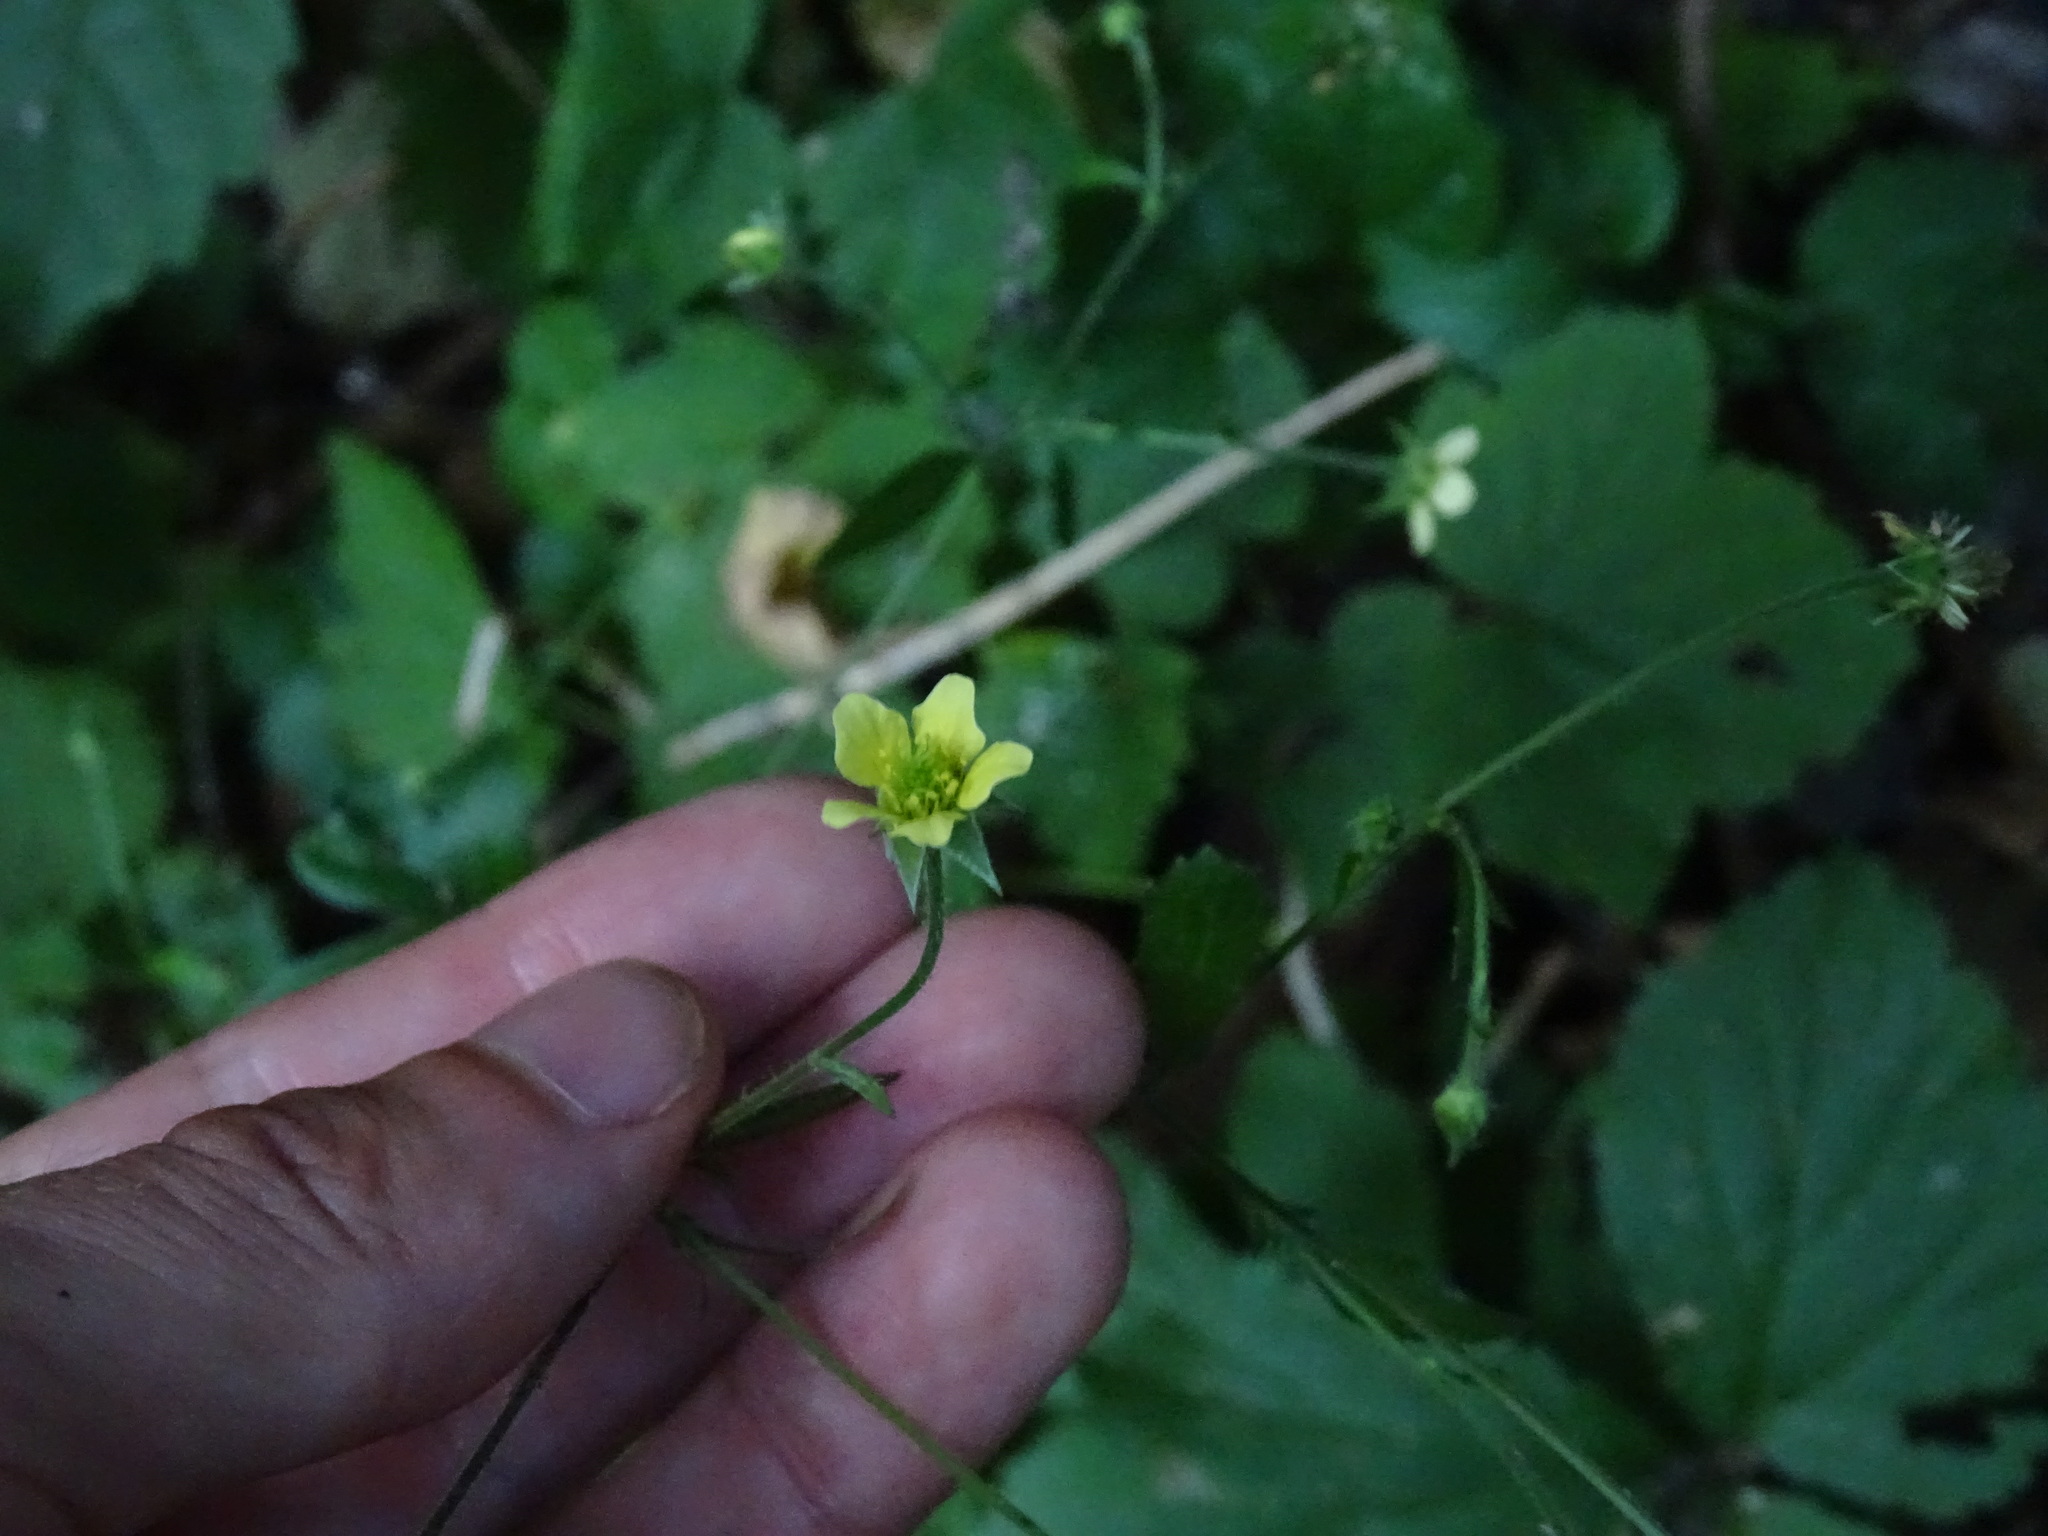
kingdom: Plantae
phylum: Tracheophyta
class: Magnoliopsida
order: Rosales
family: Rosaceae
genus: Geum
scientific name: Geum catlingii
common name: Catling's avens
